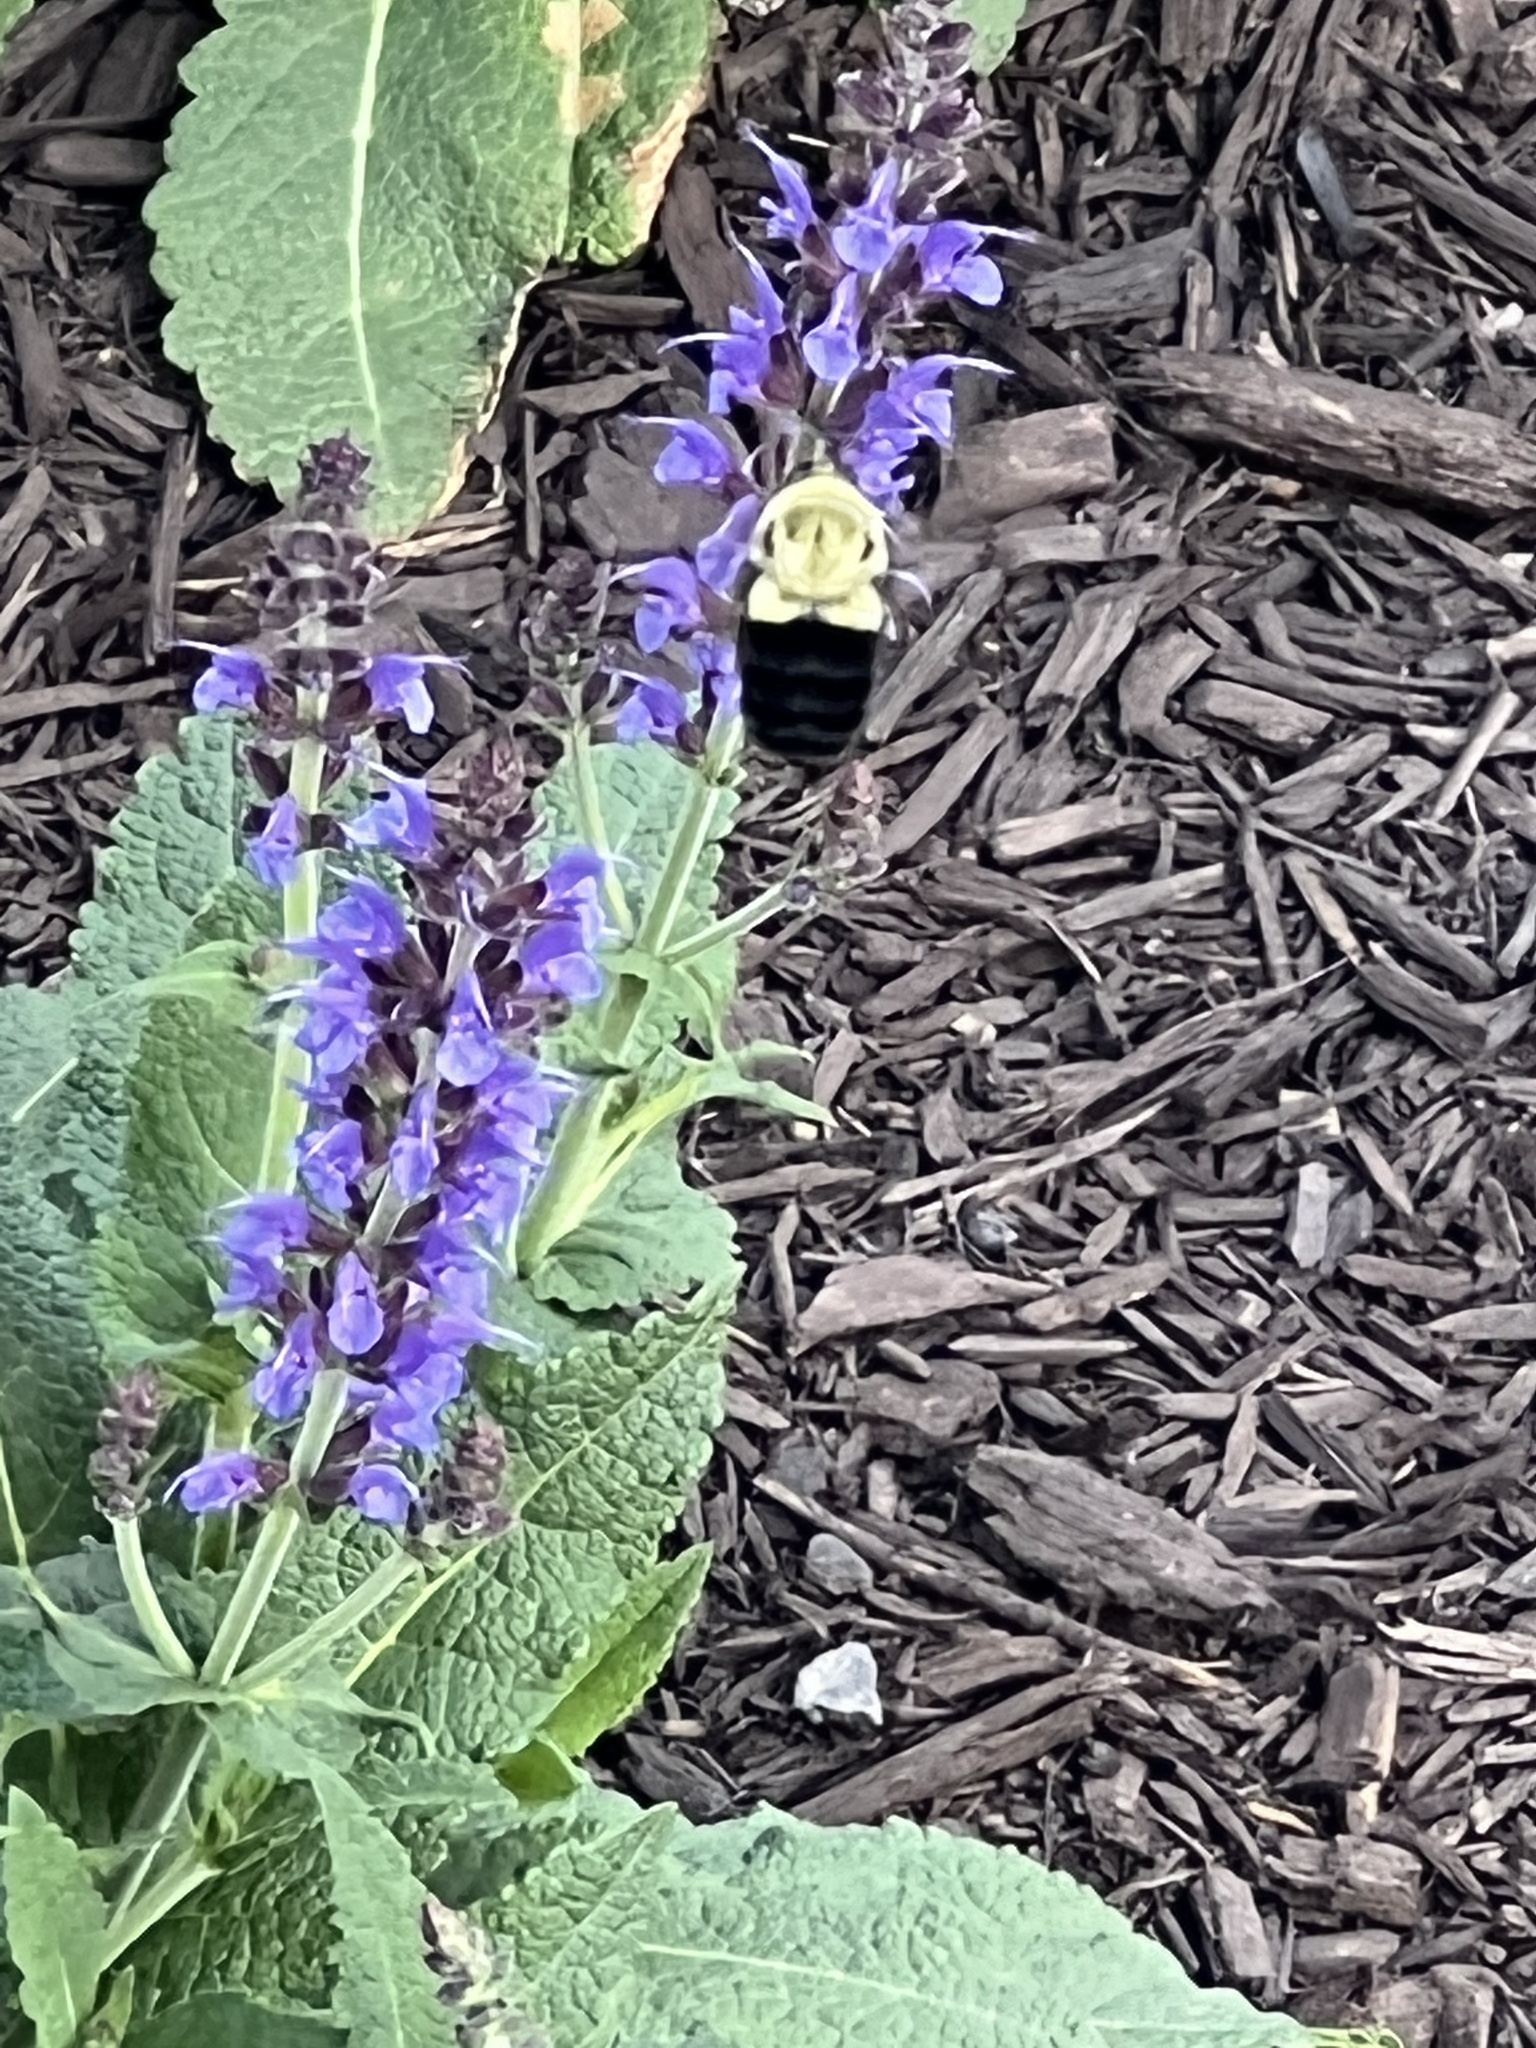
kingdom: Animalia
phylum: Arthropoda
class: Insecta
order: Hymenoptera
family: Apidae
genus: Bombus
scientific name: Bombus impatiens
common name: Common eastern bumble bee
